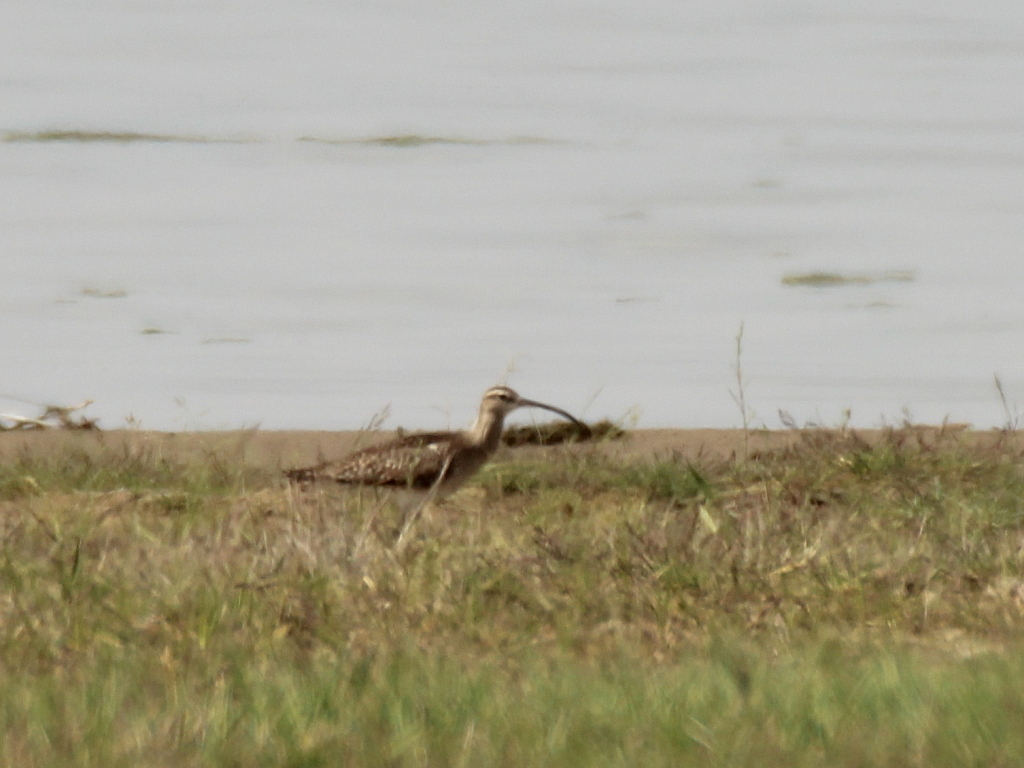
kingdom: Animalia
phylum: Chordata
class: Aves
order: Charadriiformes
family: Scolopacidae
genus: Numenius
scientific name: Numenius phaeopus
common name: Whimbrel
